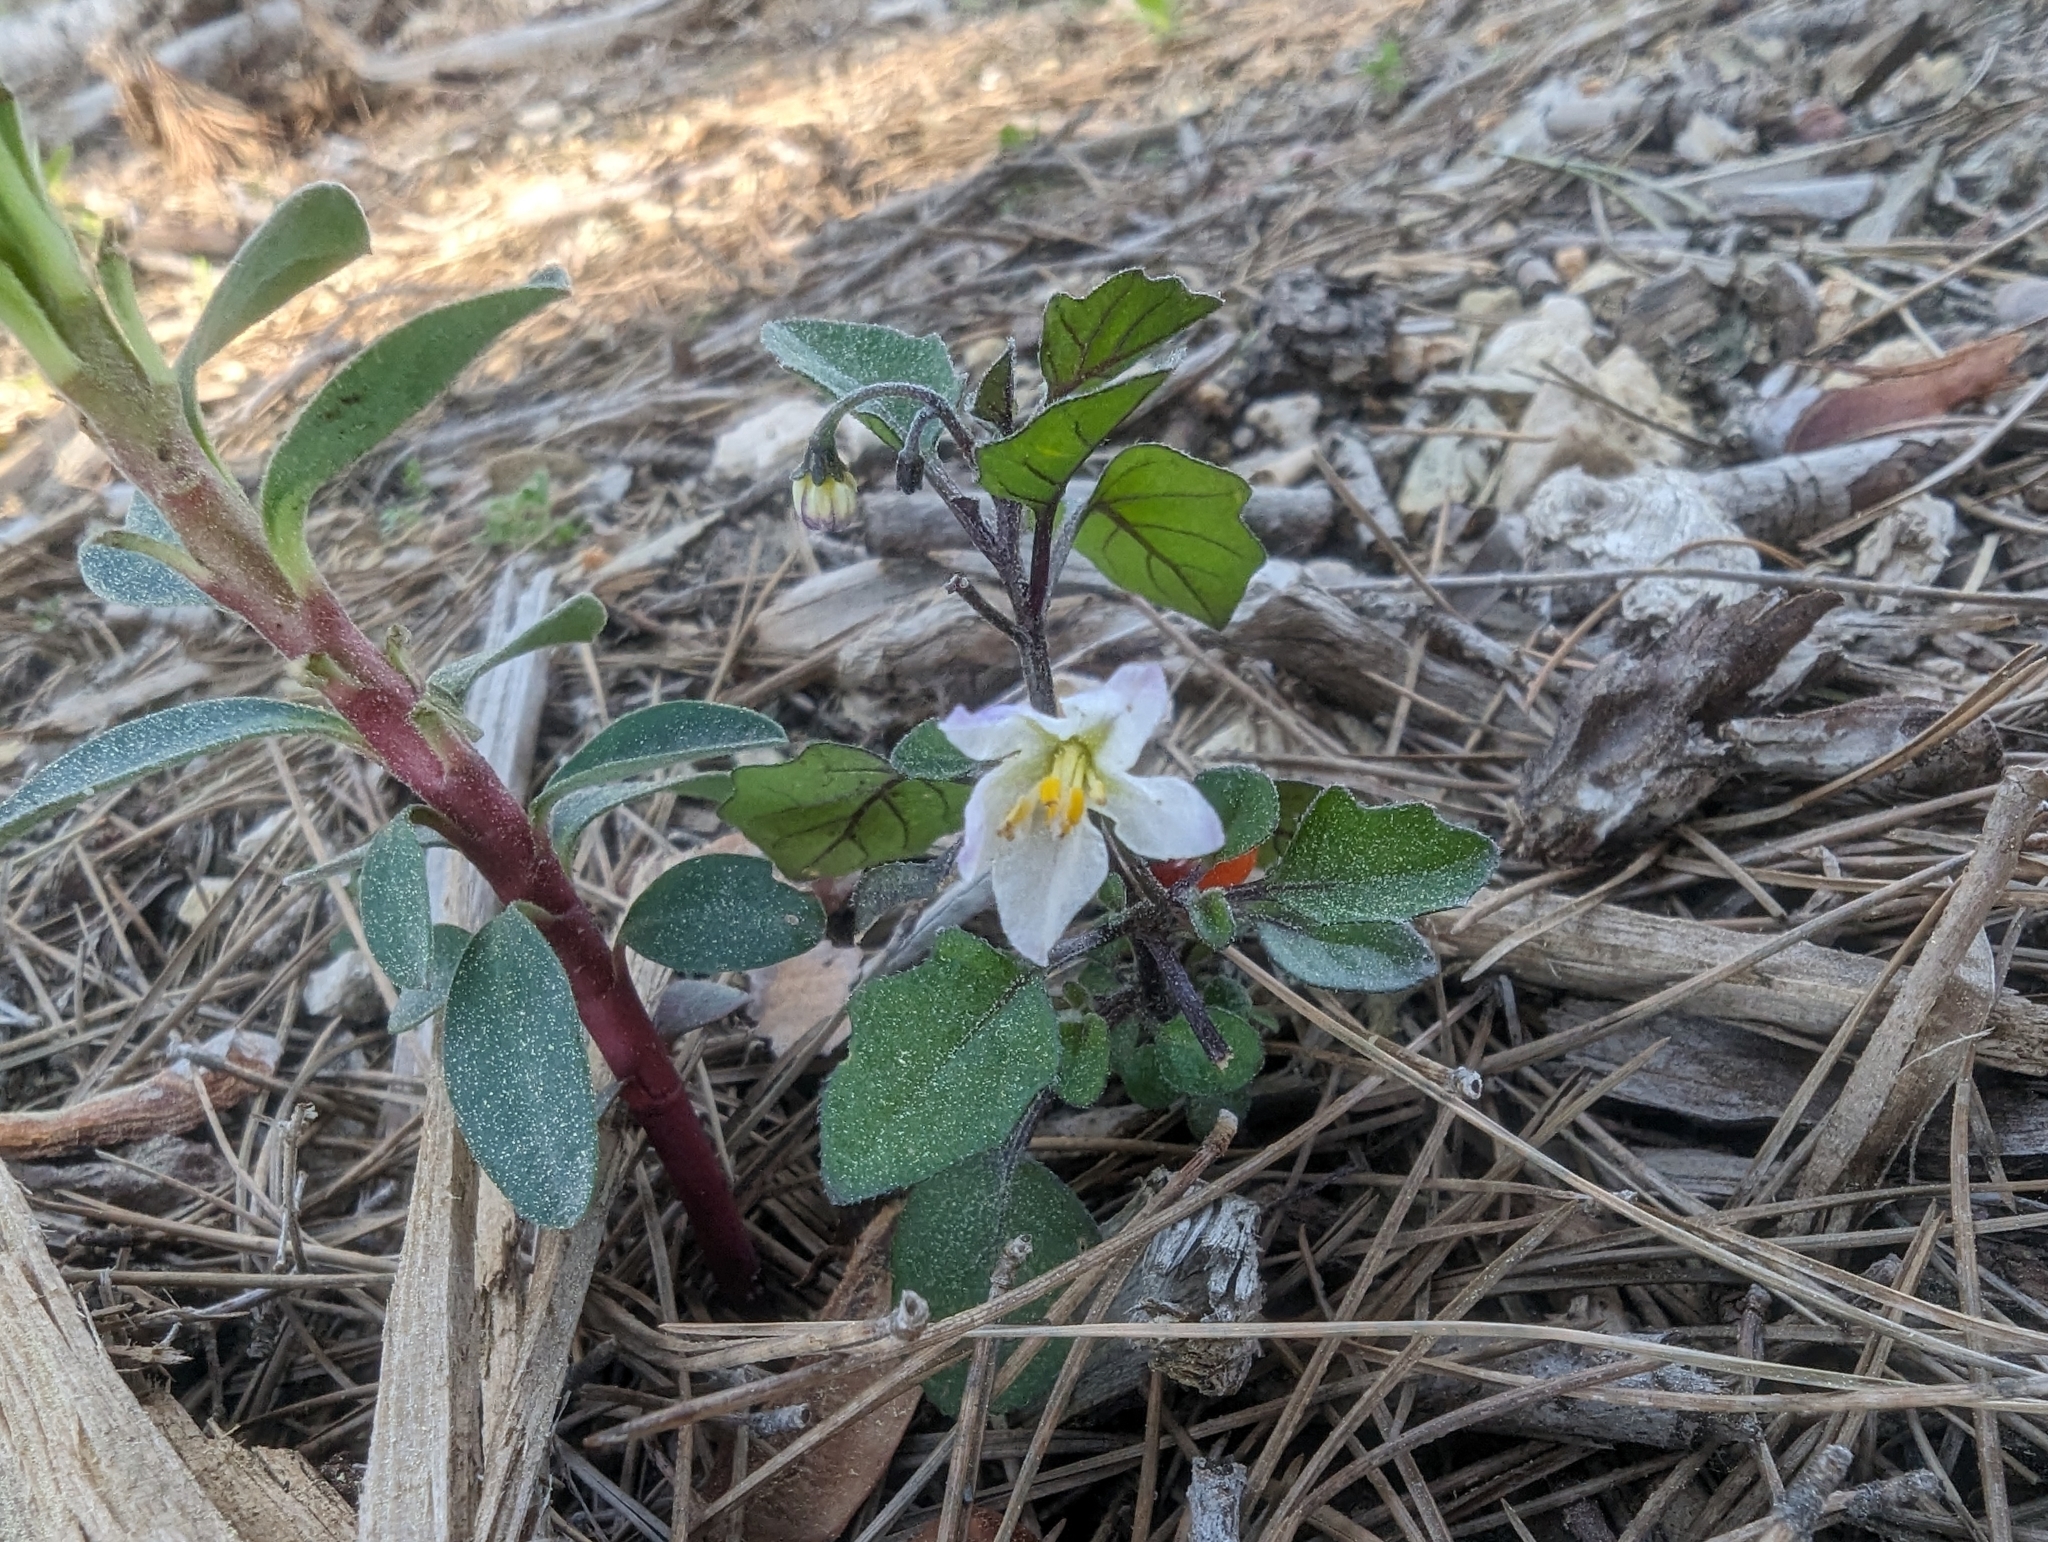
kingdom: Plantae
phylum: Tracheophyta
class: Magnoliopsida
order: Solanales
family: Solanaceae
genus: Solanum
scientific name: Solanum villosum
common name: Red nightshade
